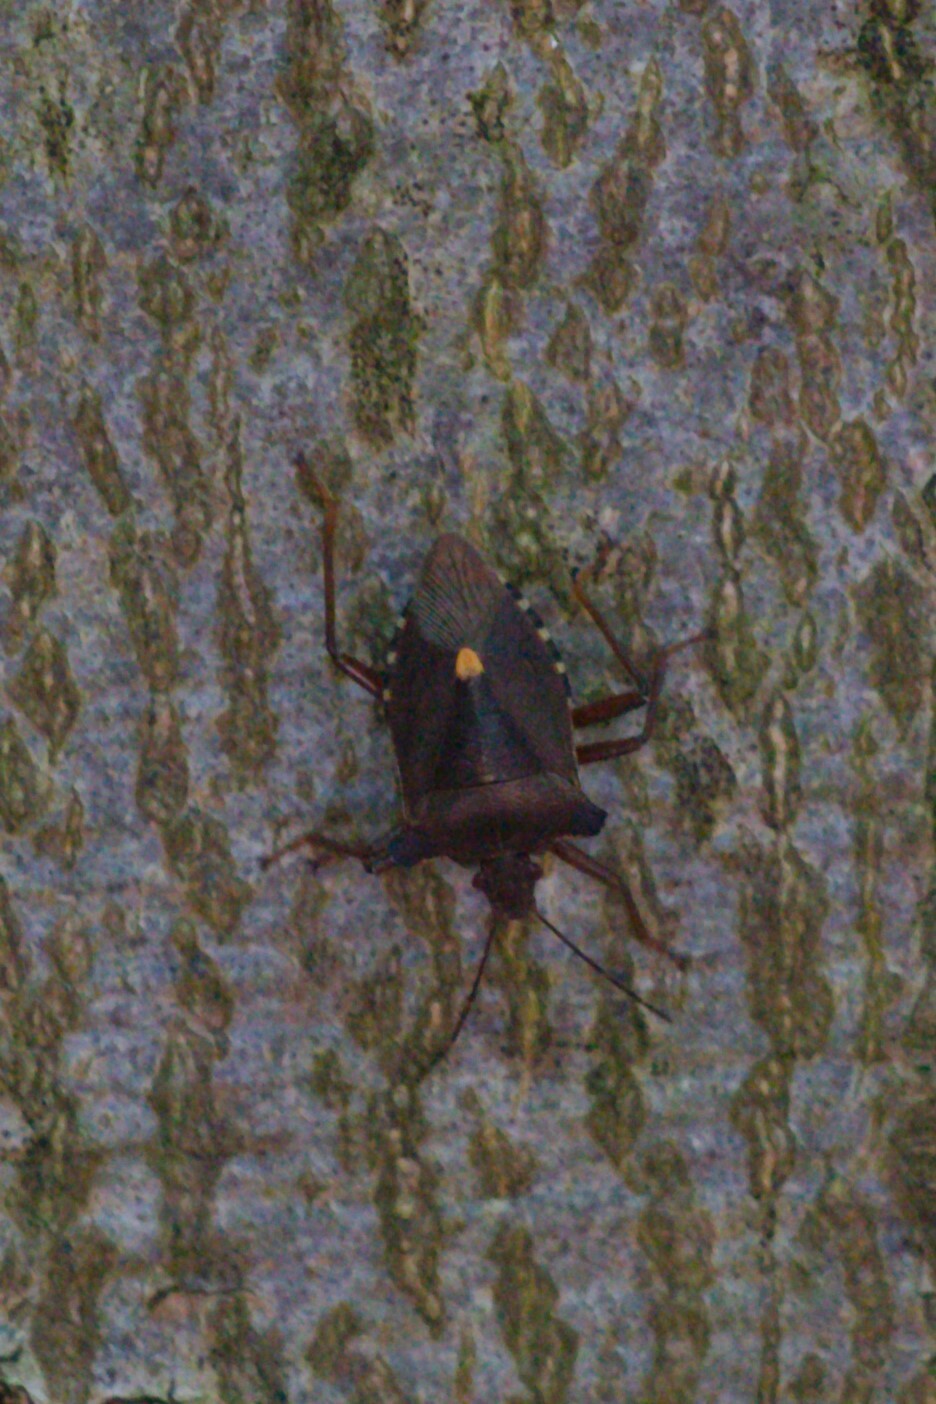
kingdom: Animalia
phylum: Arthropoda
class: Insecta
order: Hemiptera
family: Pentatomidae
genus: Pentatoma
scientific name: Pentatoma rufipes
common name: Forest bug
